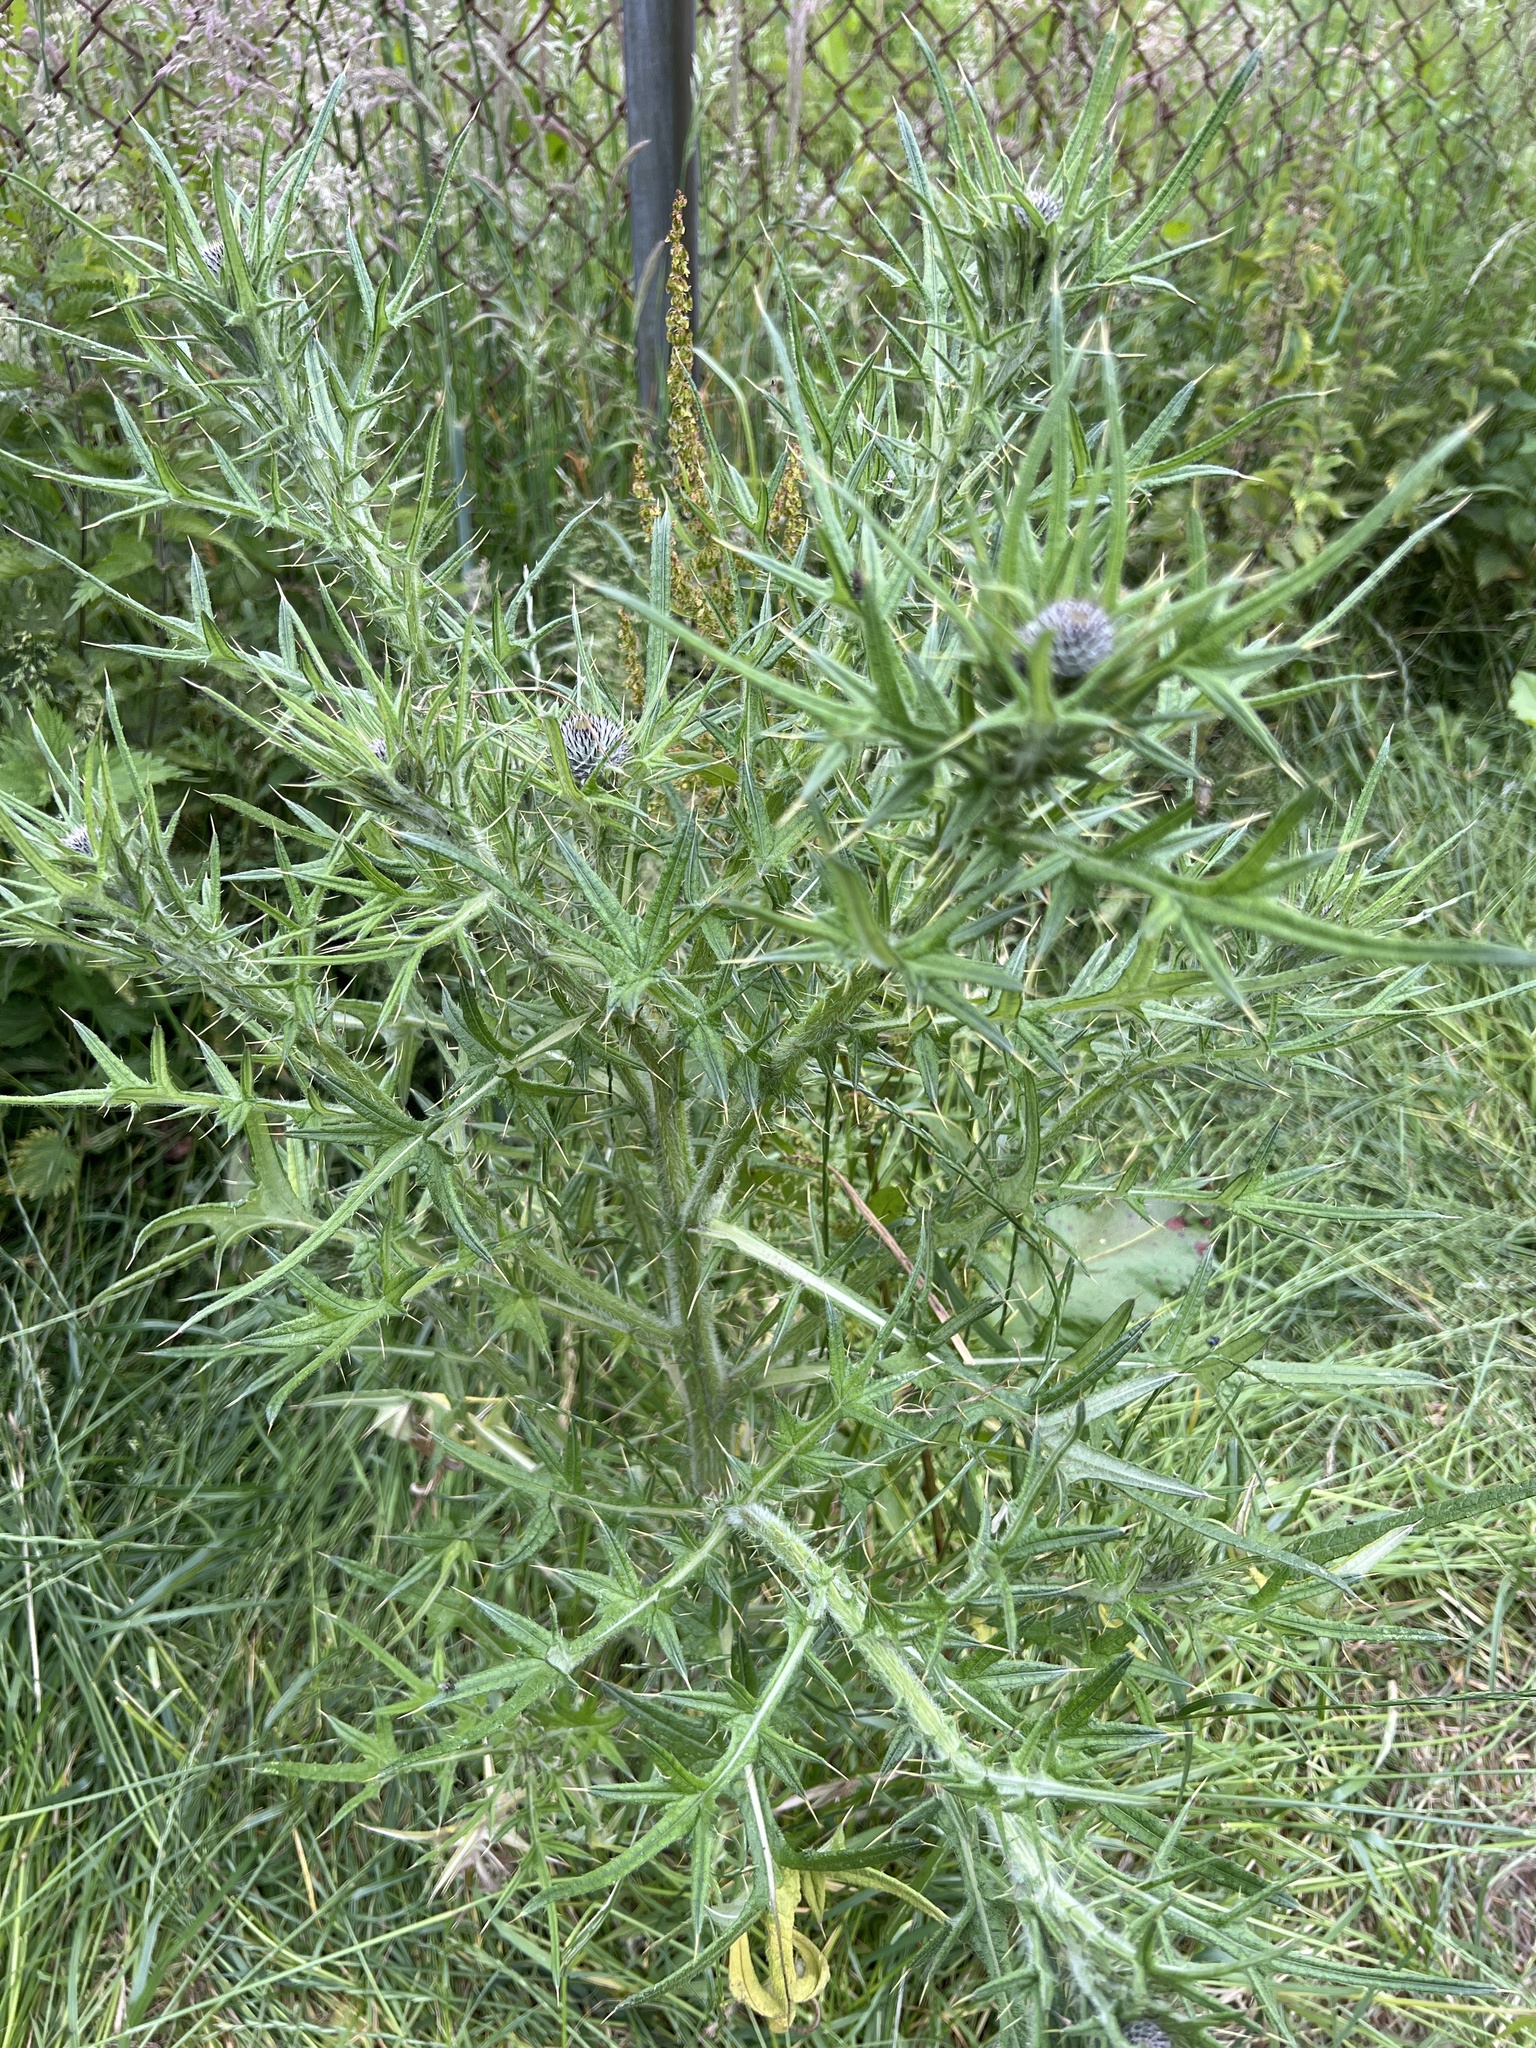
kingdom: Plantae
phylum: Tracheophyta
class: Magnoliopsida
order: Asterales
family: Asteraceae
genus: Cirsium
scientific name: Cirsium vulgare
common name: Bull thistle
